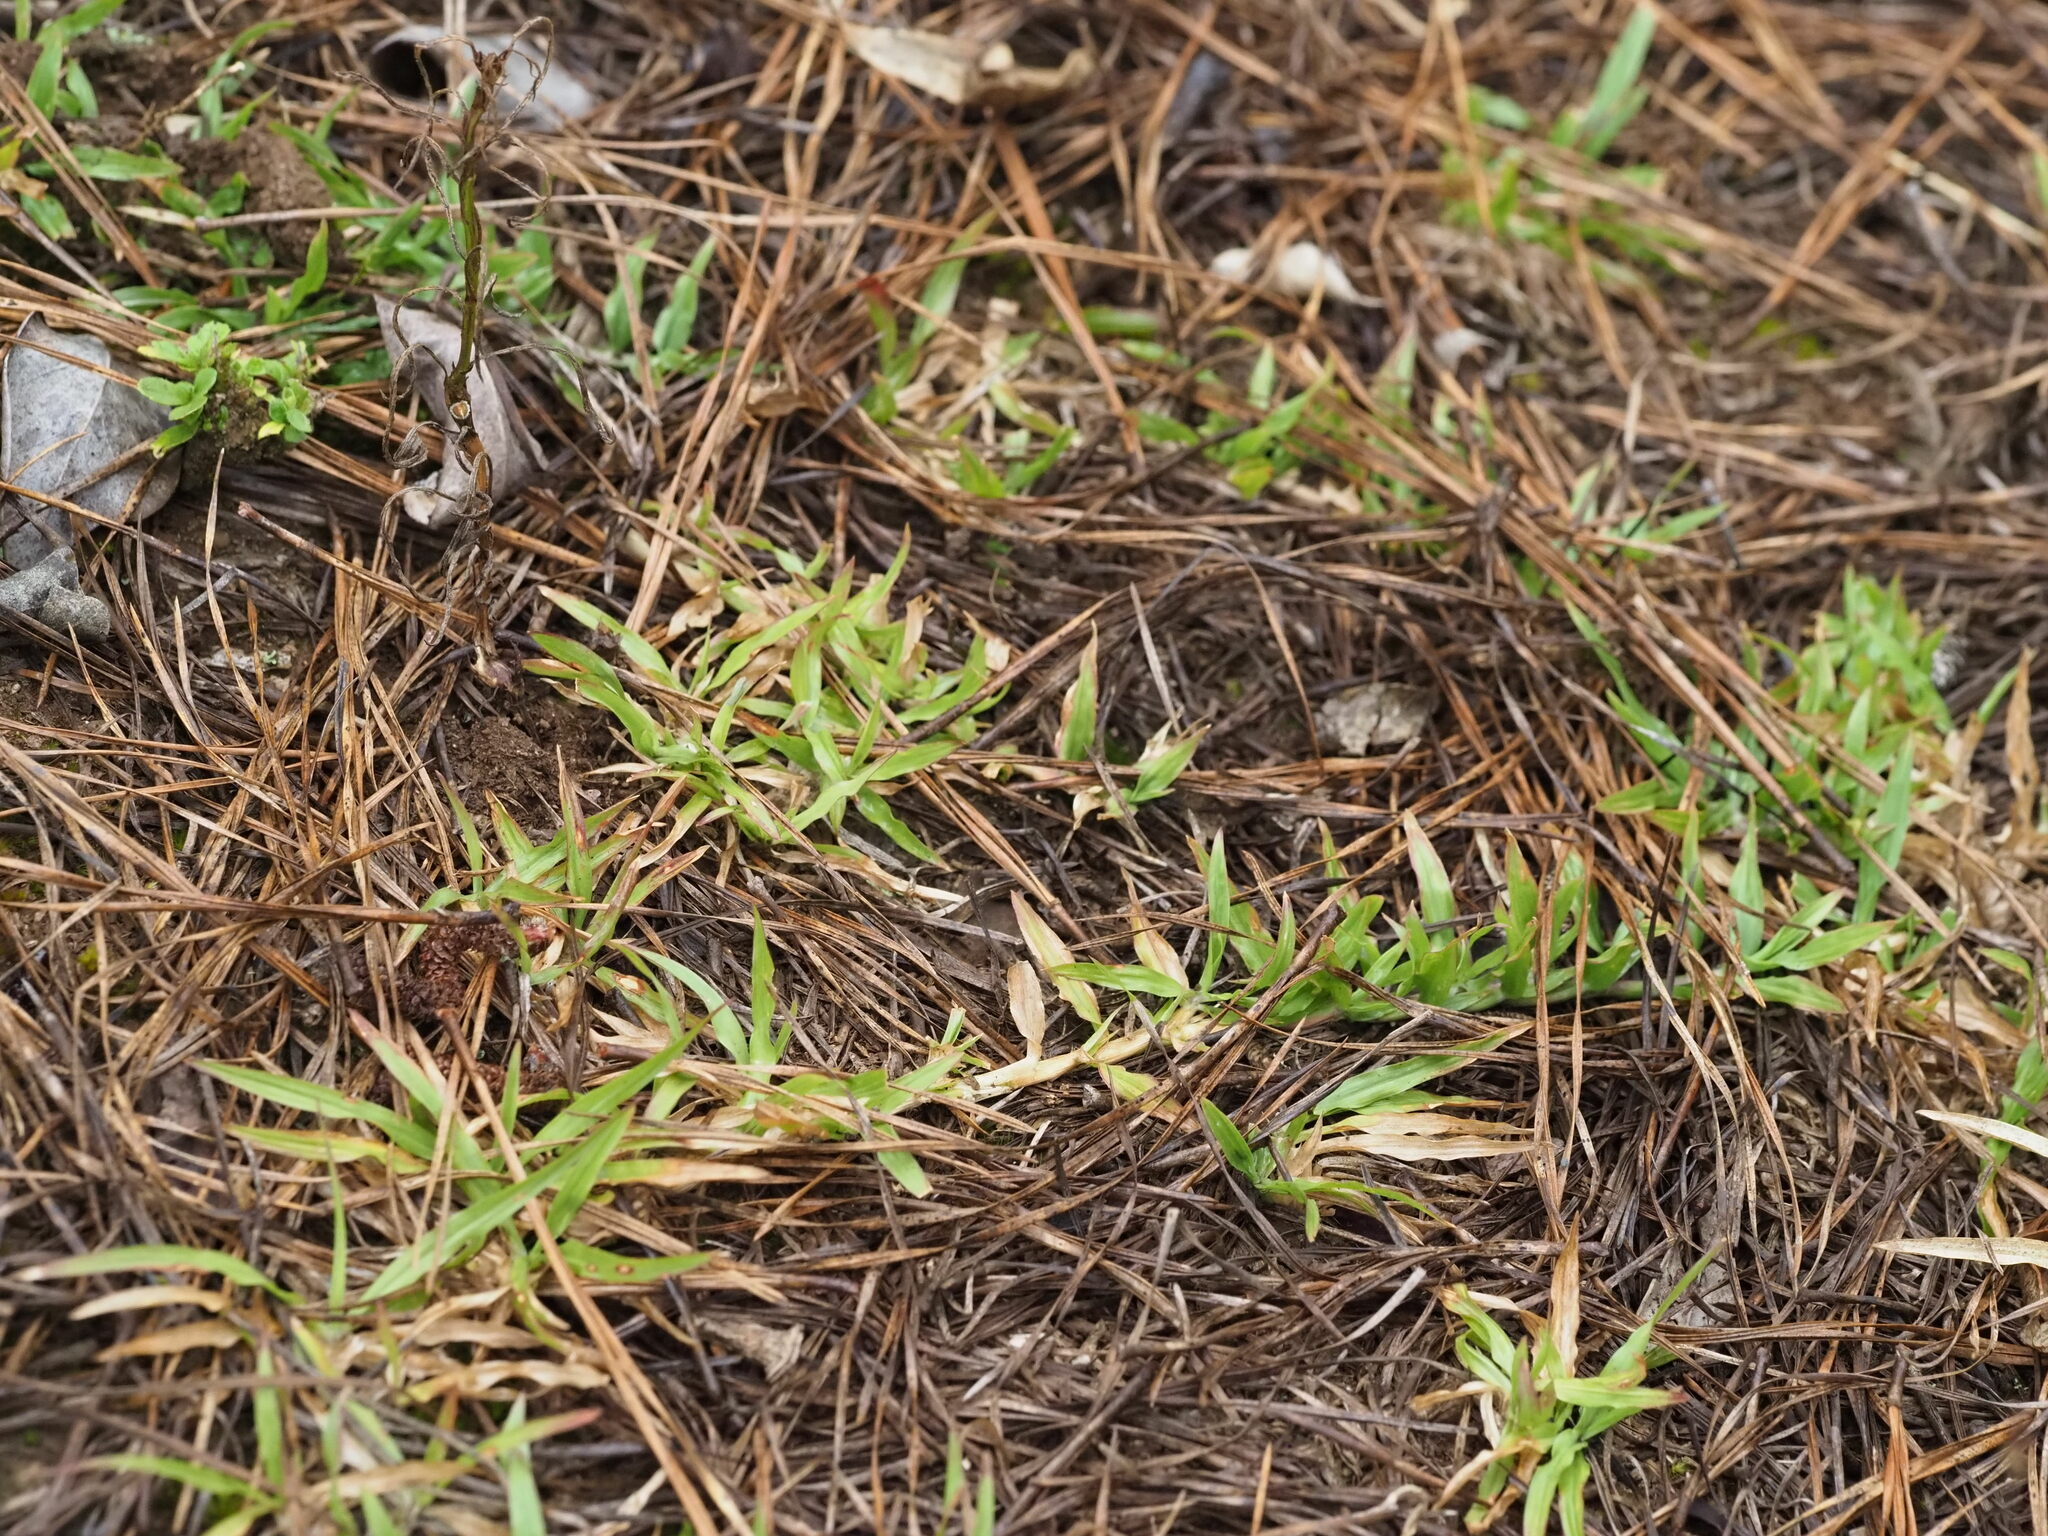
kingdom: Plantae
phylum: Tracheophyta
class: Liliopsida
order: Poales
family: Poaceae
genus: Chrysopogon
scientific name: Chrysopogon aciculatus
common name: Pilipiliula
